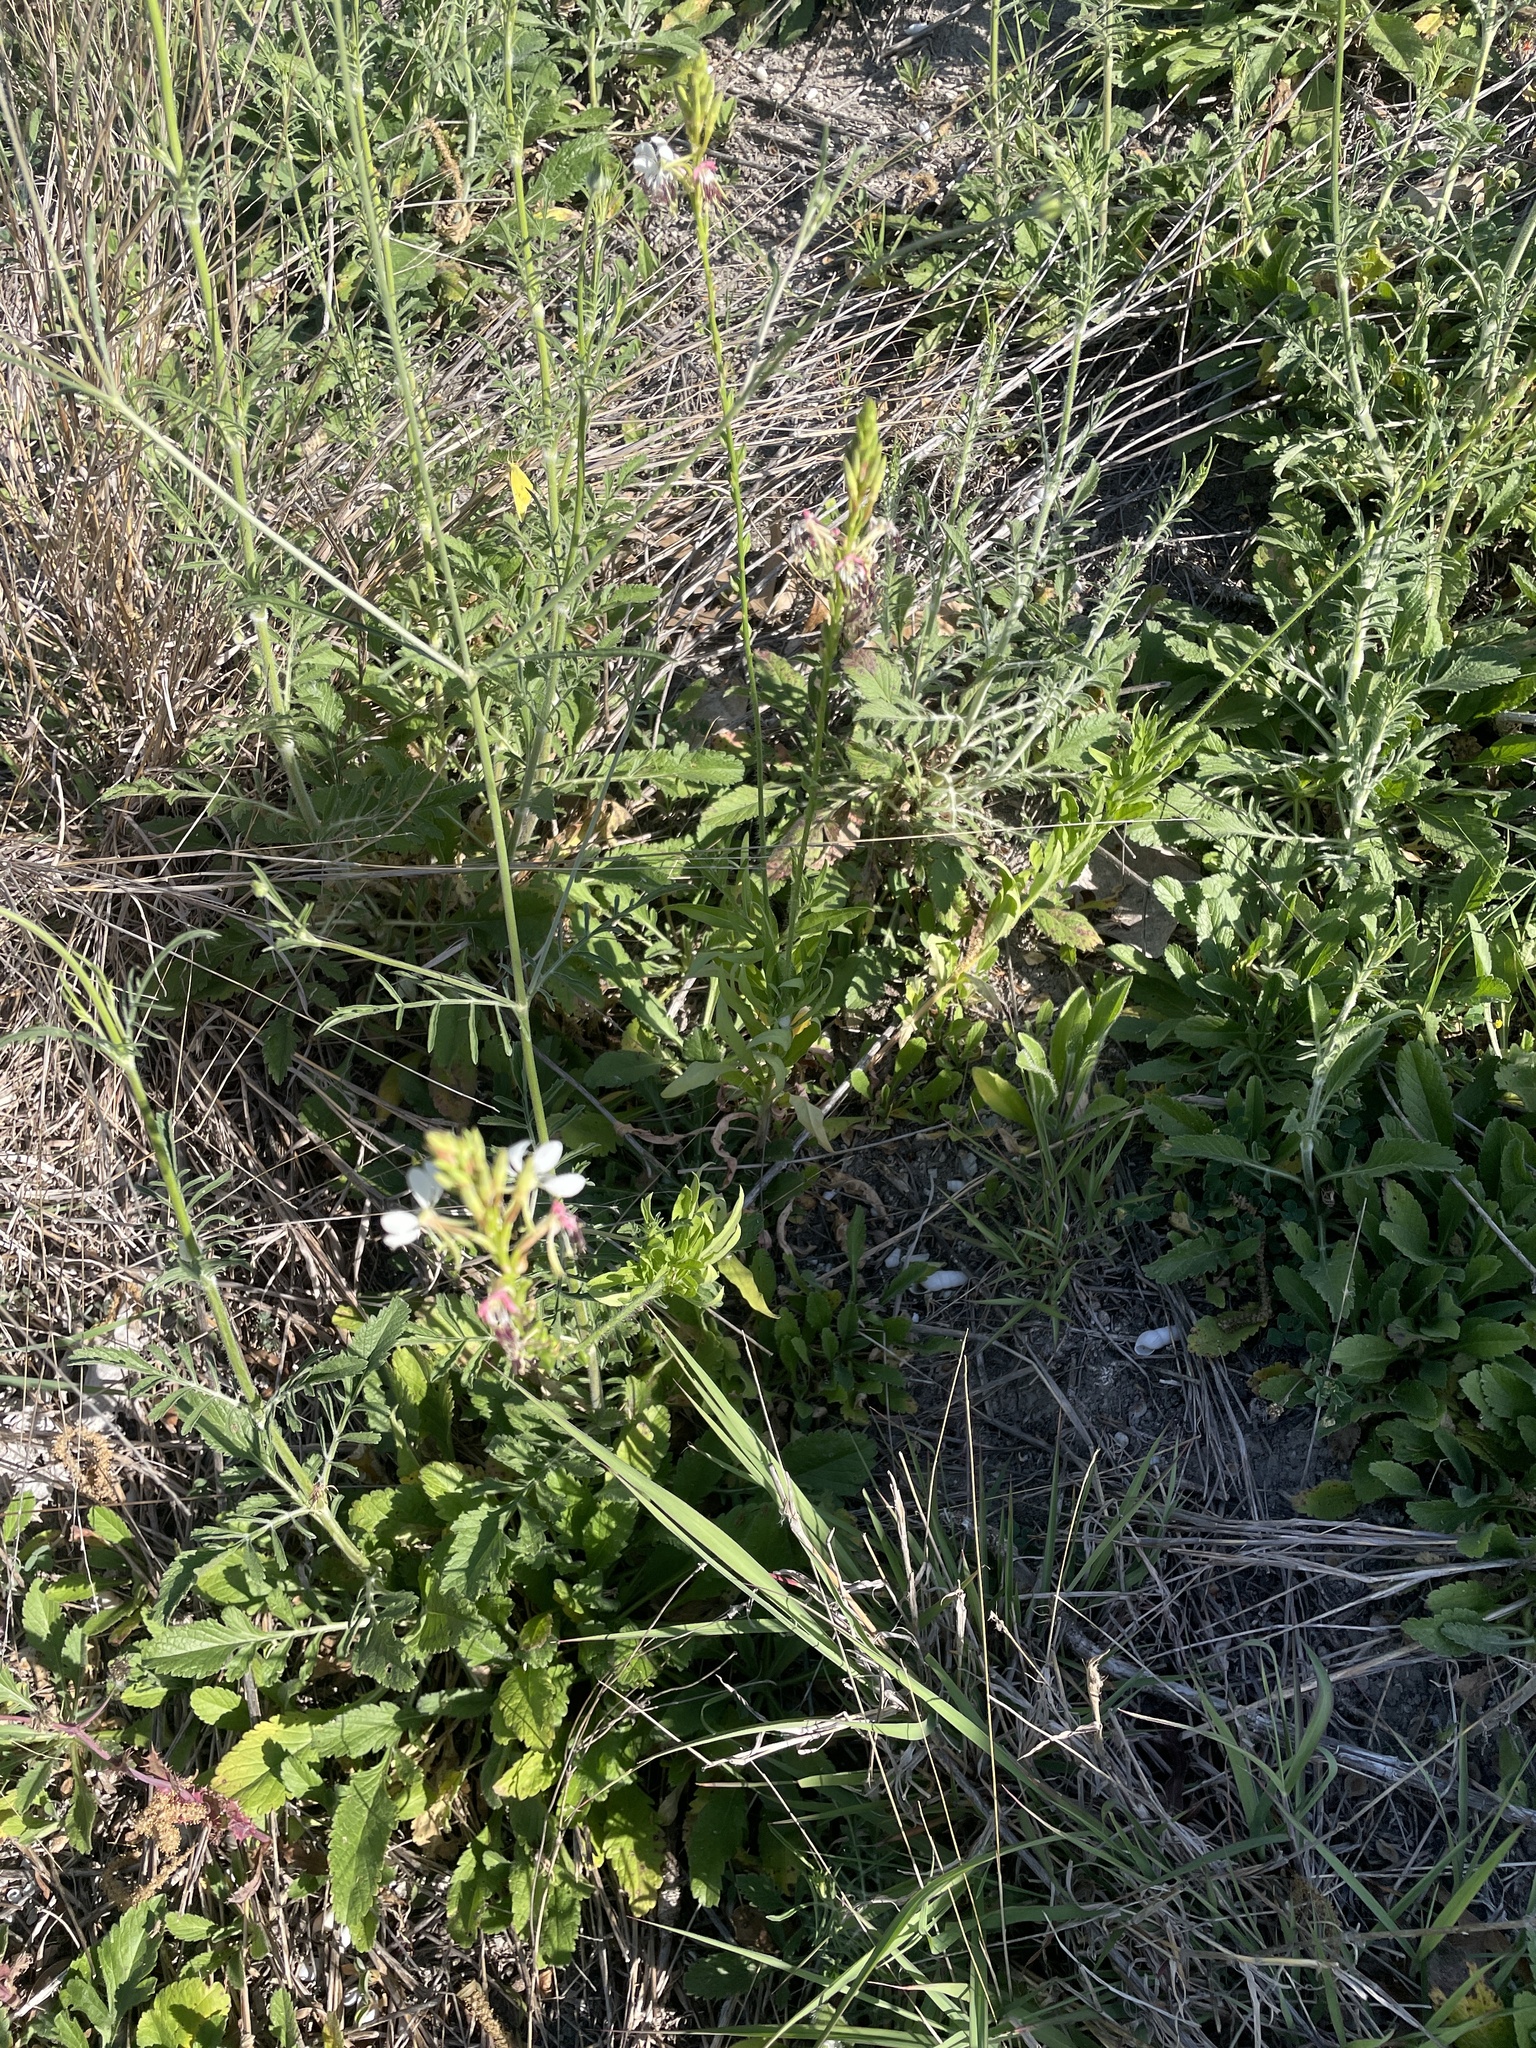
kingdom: Plantae
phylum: Tracheophyta
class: Magnoliopsida
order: Myrtales
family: Onagraceae
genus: Oenothera
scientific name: Oenothera suffulta
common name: Kisses
